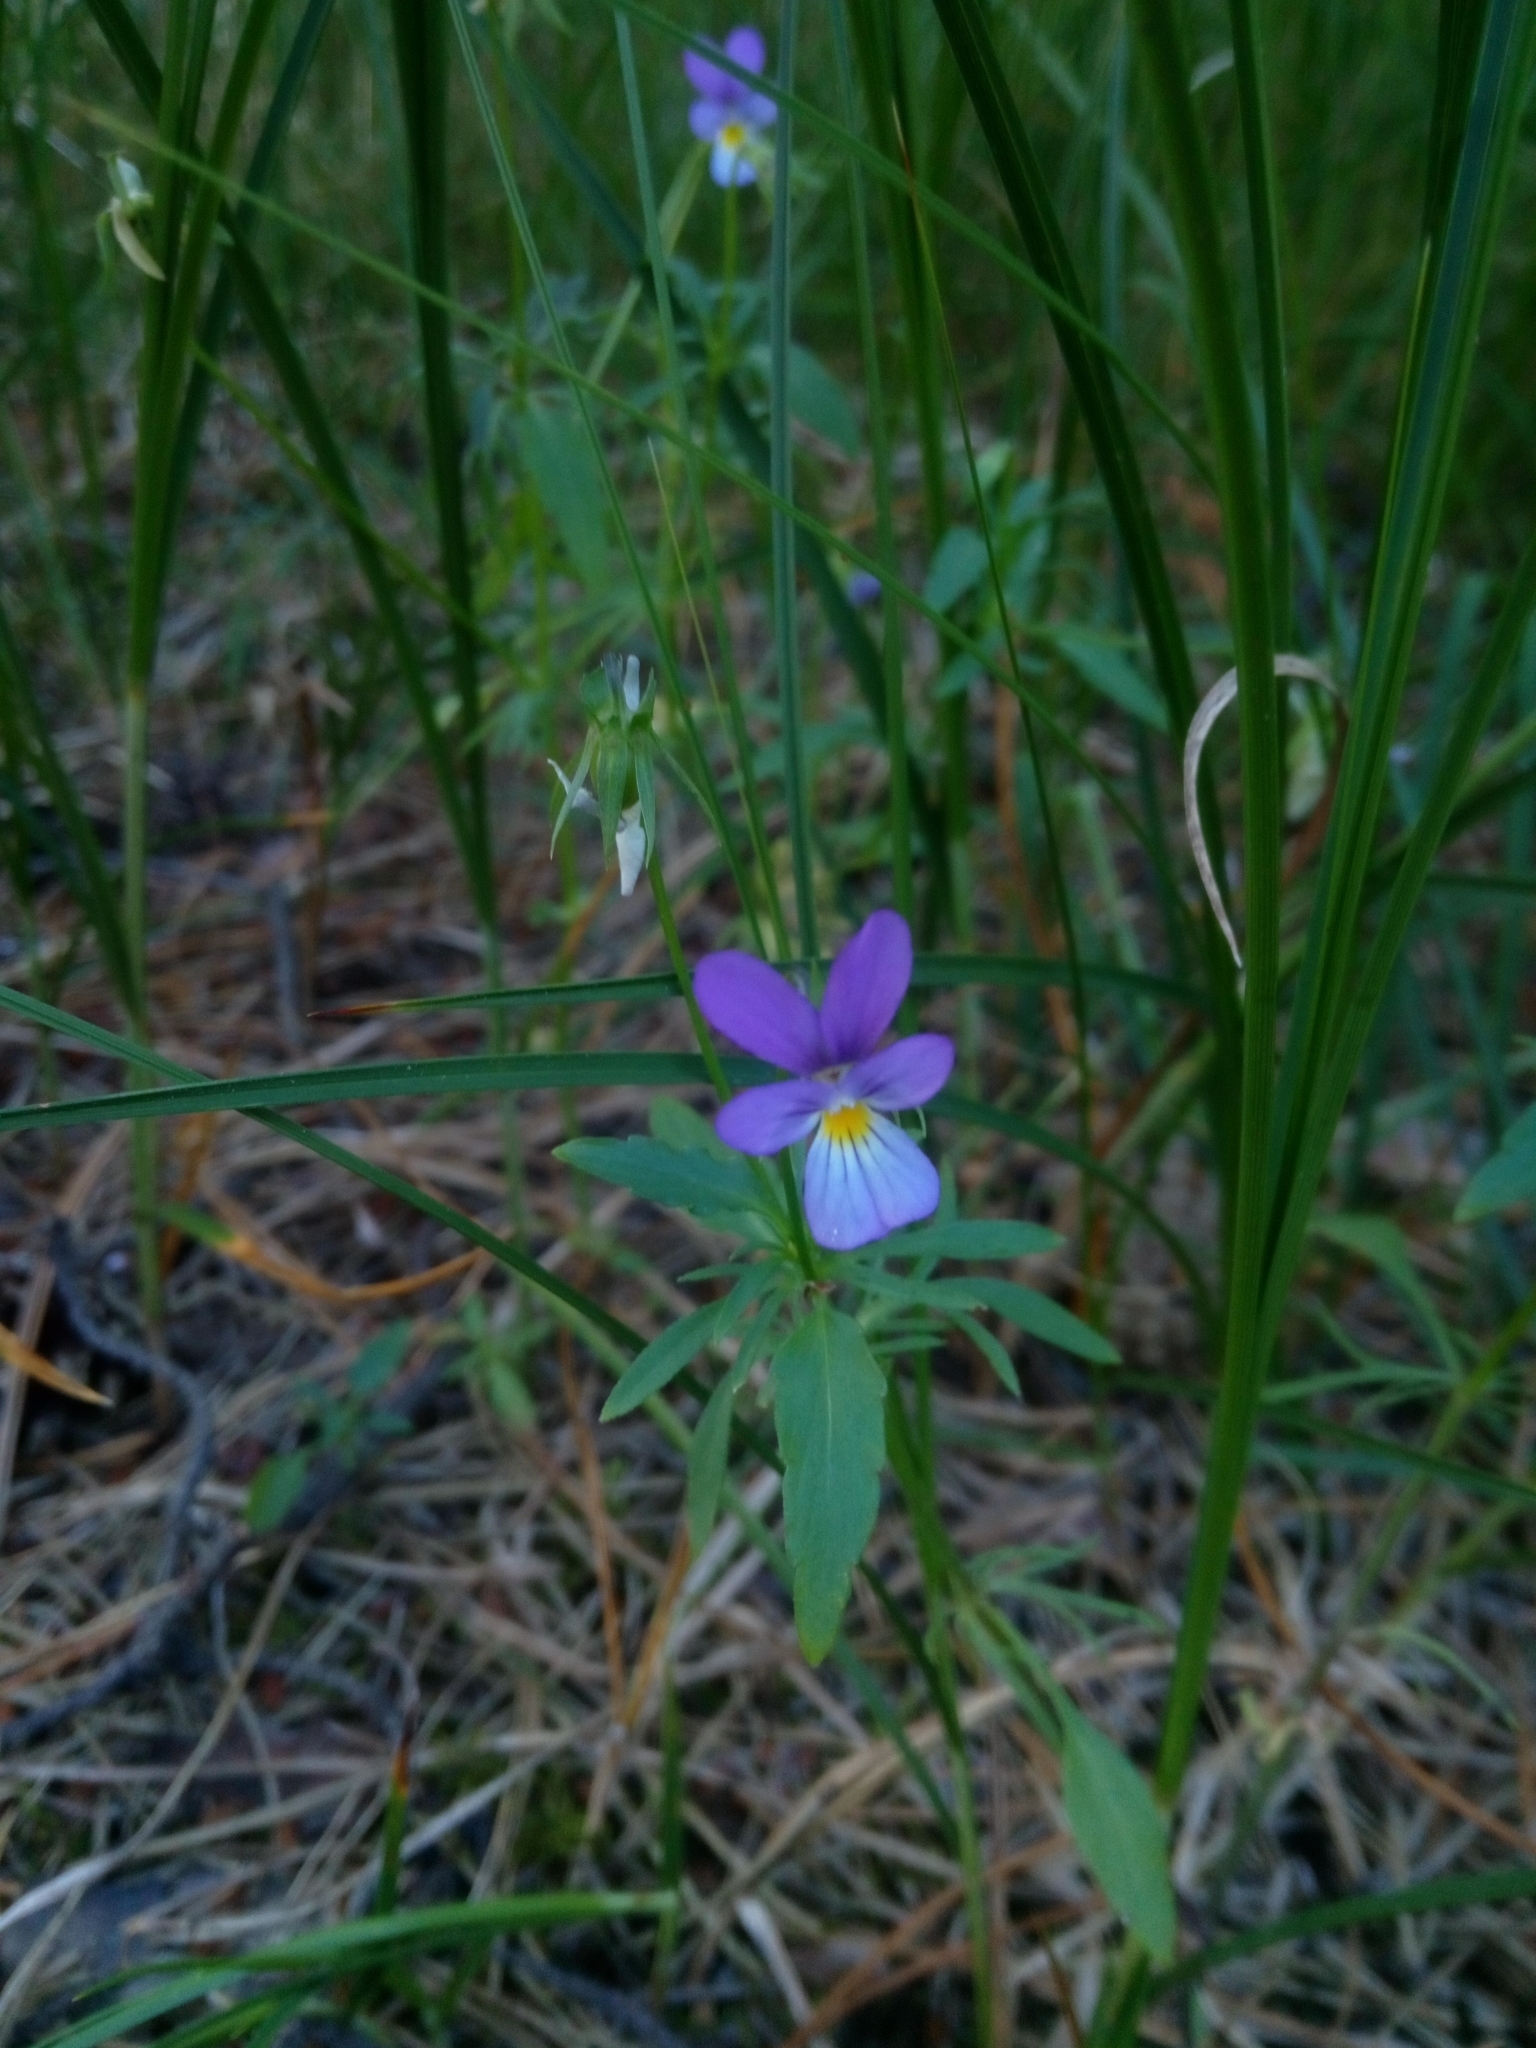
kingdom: Plantae
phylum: Tracheophyta
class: Magnoliopsida
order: Malpighiales
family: Violaceae
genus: Viola
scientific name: Viola tricolor
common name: Pansy
